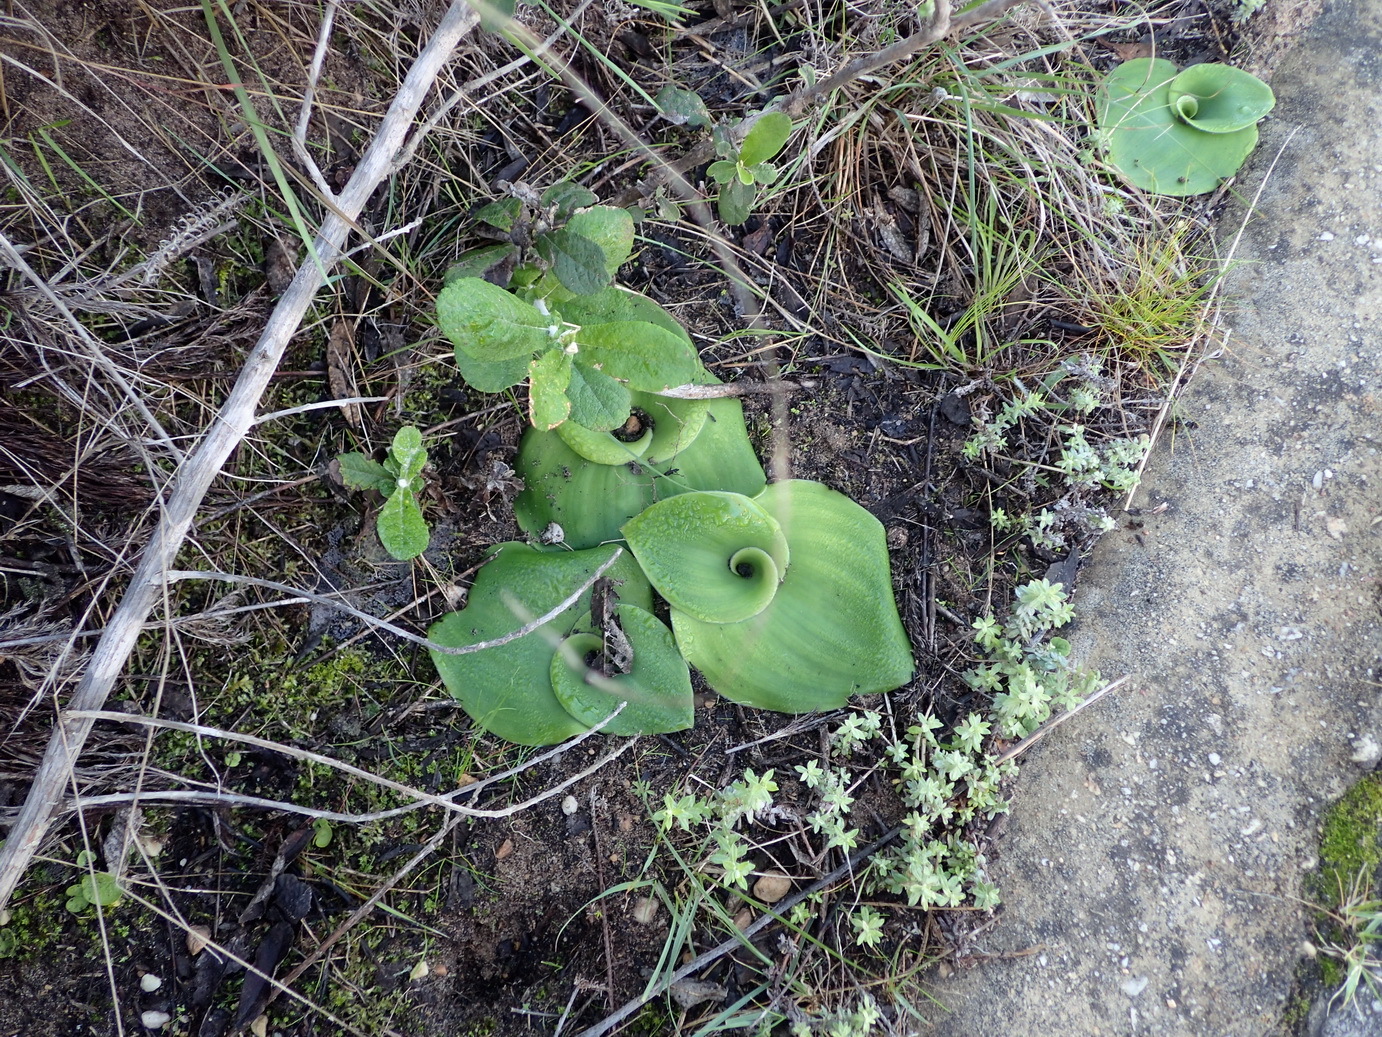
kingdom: Plantae
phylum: Tracheophyta
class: Liliopsida
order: Asparagales
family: Orchidaceae
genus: Satyrium
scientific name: Satyrium princeps
